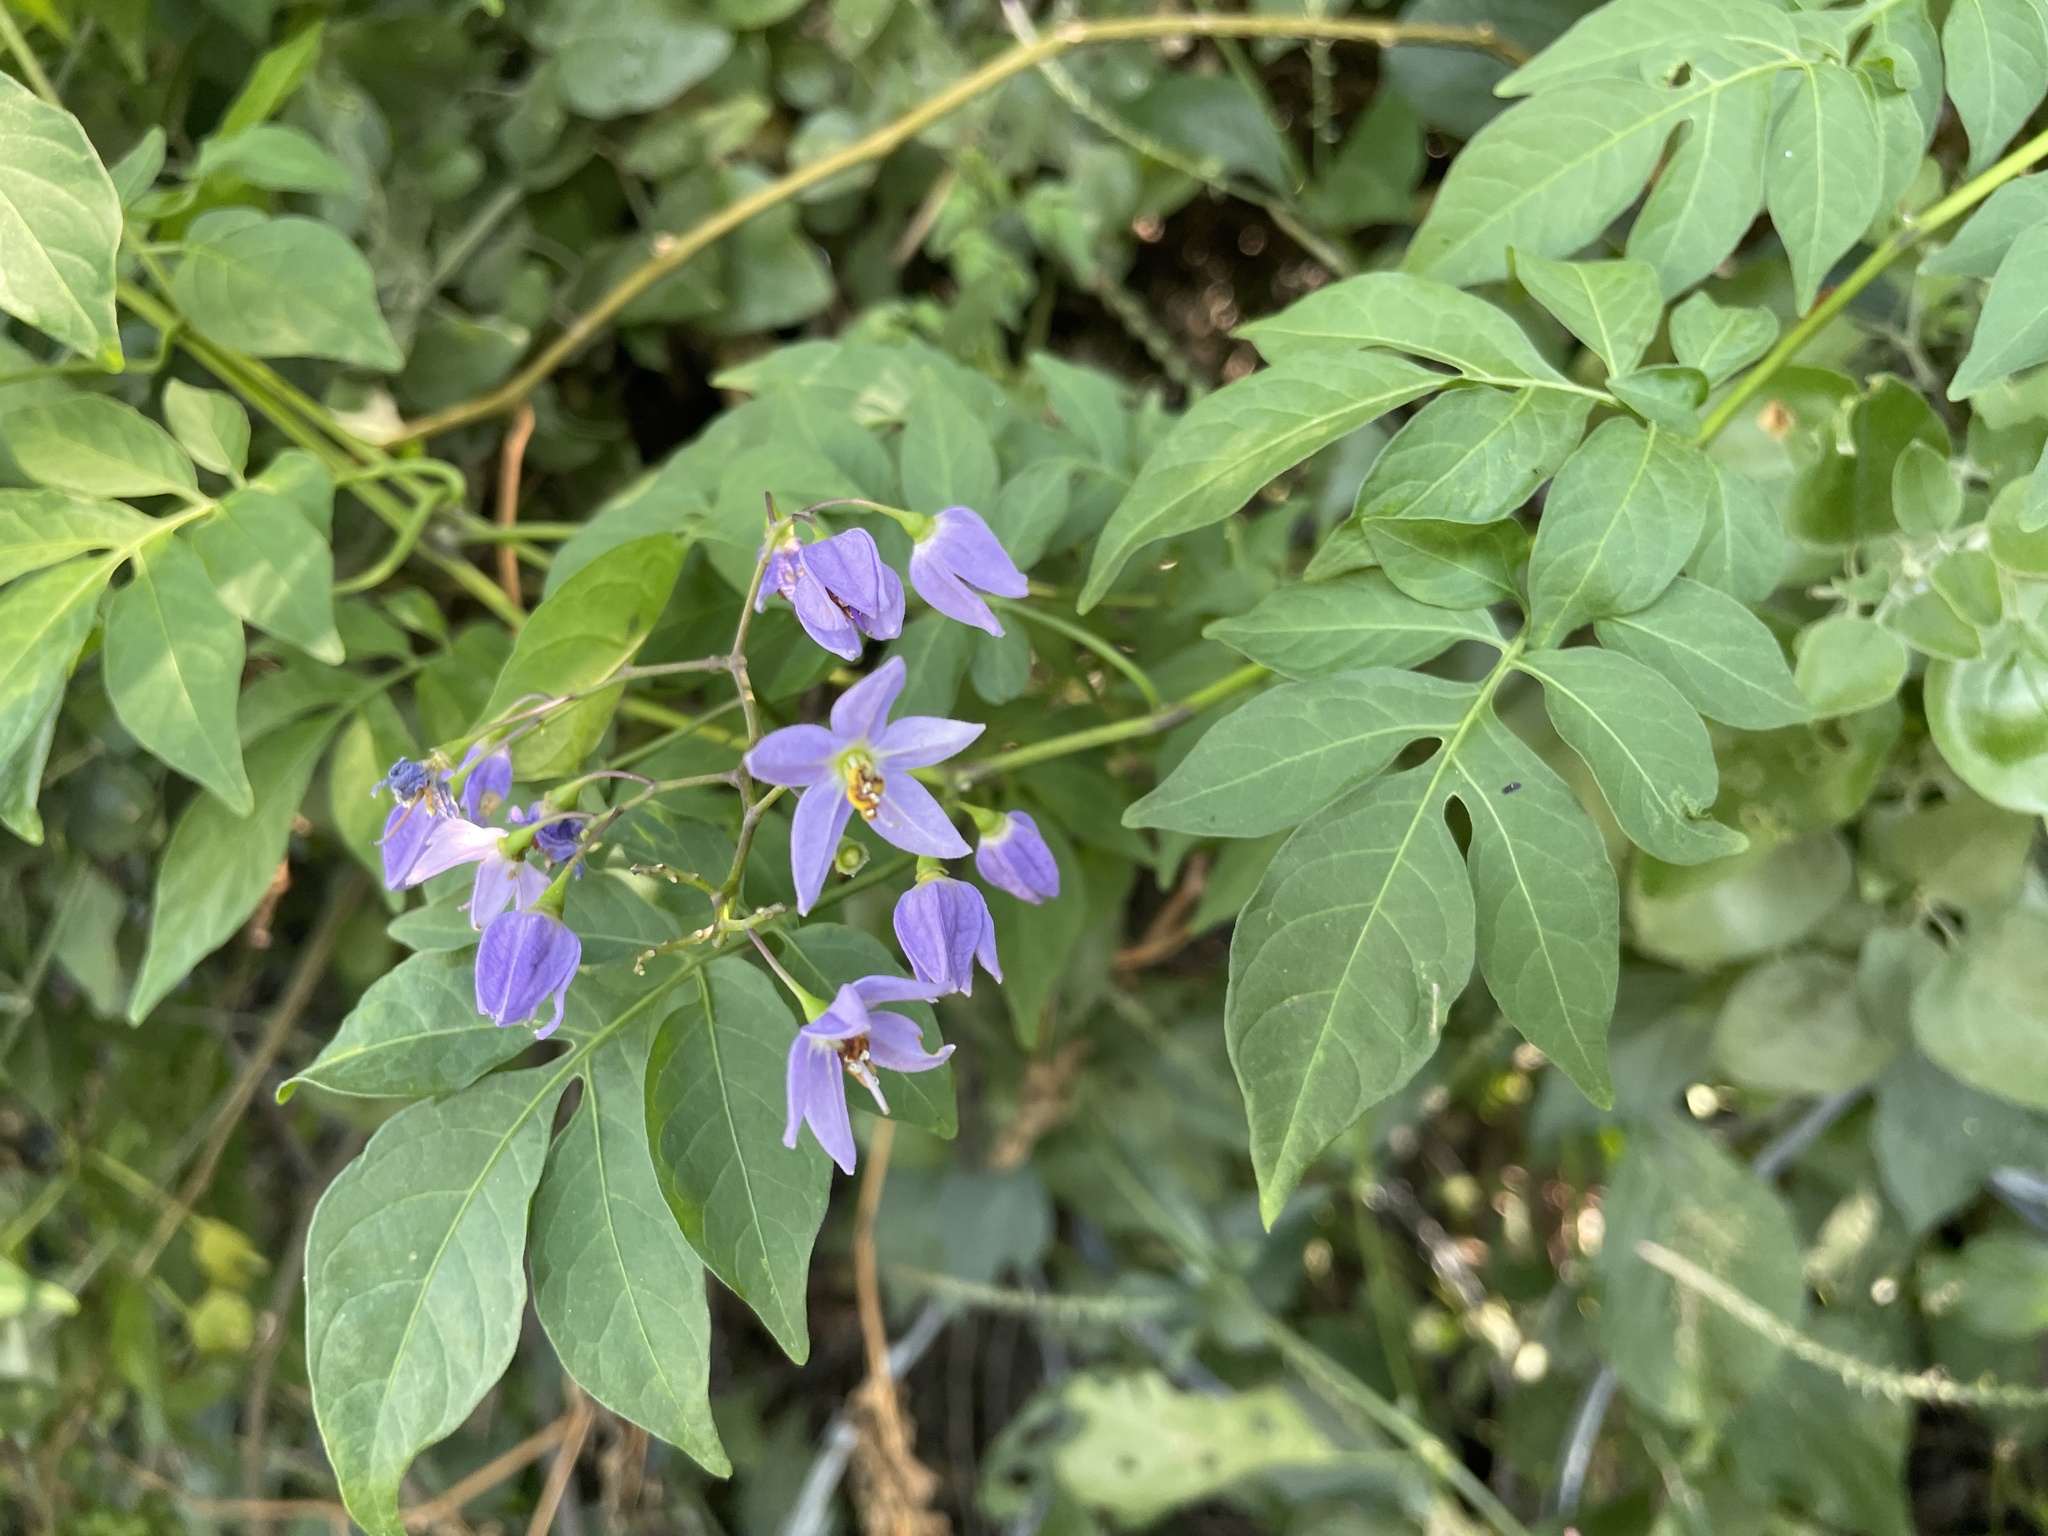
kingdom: Plantae
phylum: Tracheophyta
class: Magnoliopsida
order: Solanales
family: Solanaceae
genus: Solanum
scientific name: Solanum seaforthianum
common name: Brazilian nightshade
